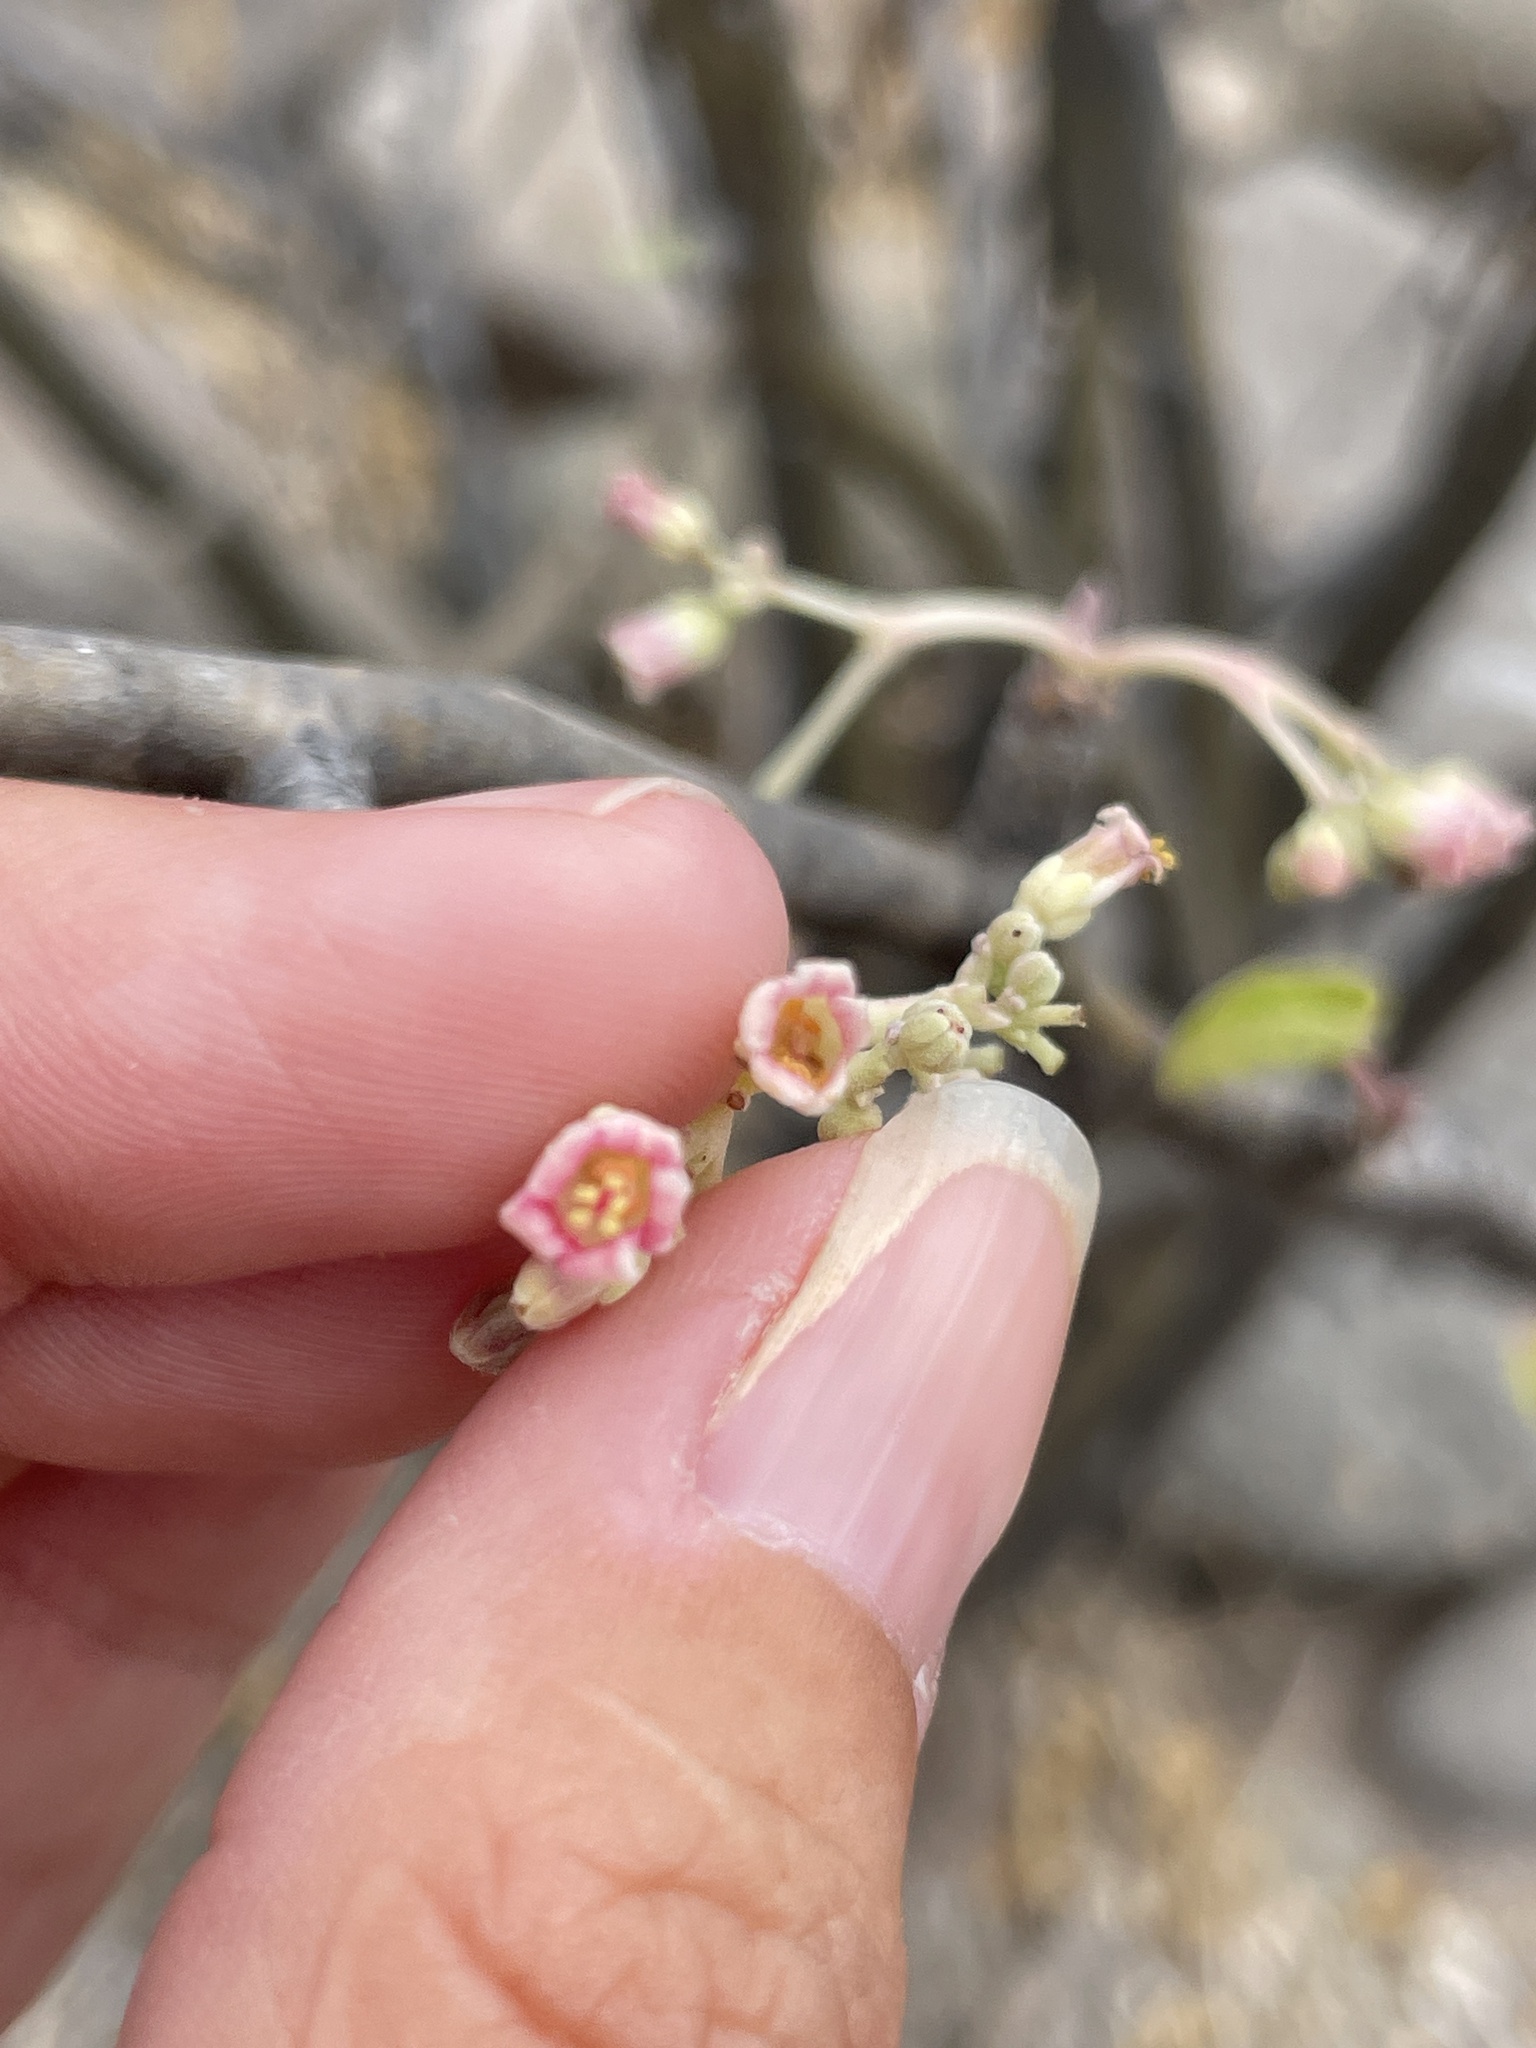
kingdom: Plantae
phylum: Tracheophyta
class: Magnoliopsida
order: Malpighiales
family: Euphorbiaceae
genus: Jatropha
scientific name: Jatropha cinerea
